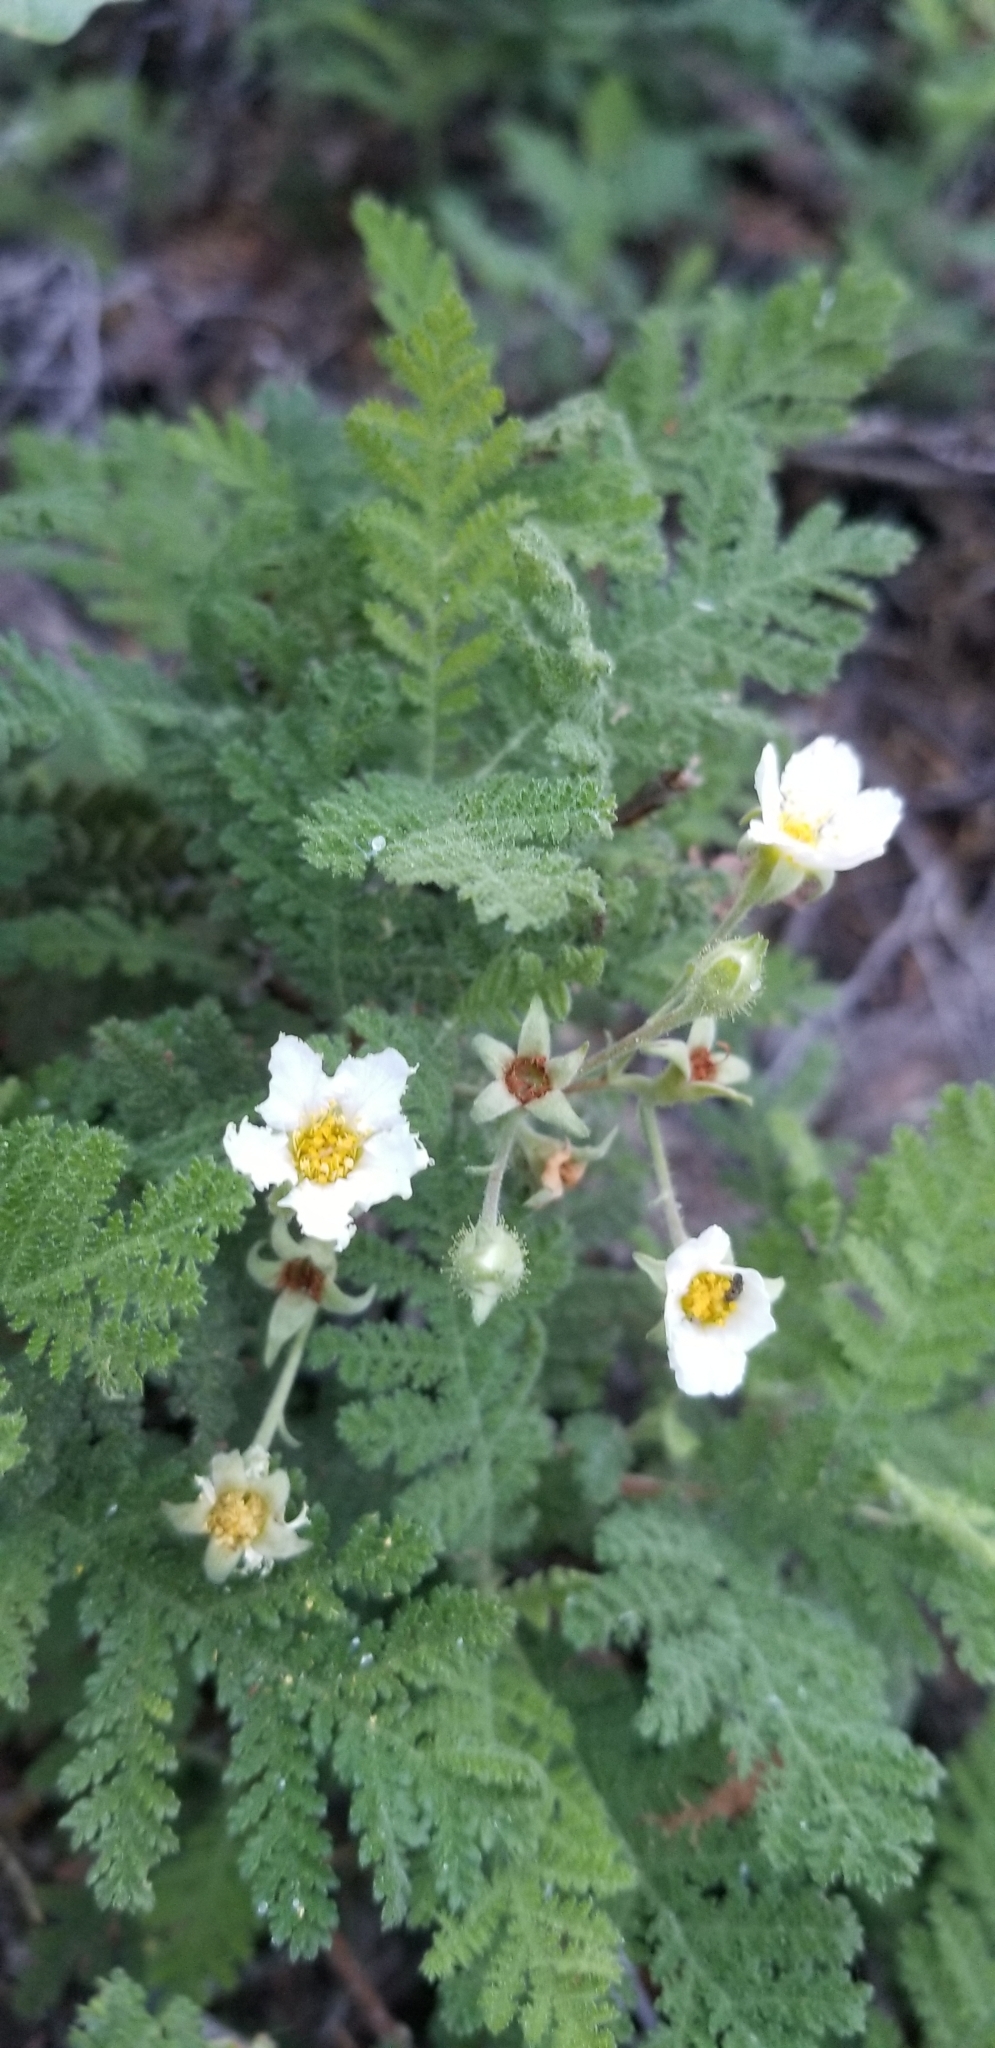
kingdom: Plantae
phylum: Tracheophyta
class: Magnoliopsida
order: Rosales
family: Rosaceae
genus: Chamaebatia
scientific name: Chamaebatia foliolosa
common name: Mountain misery
